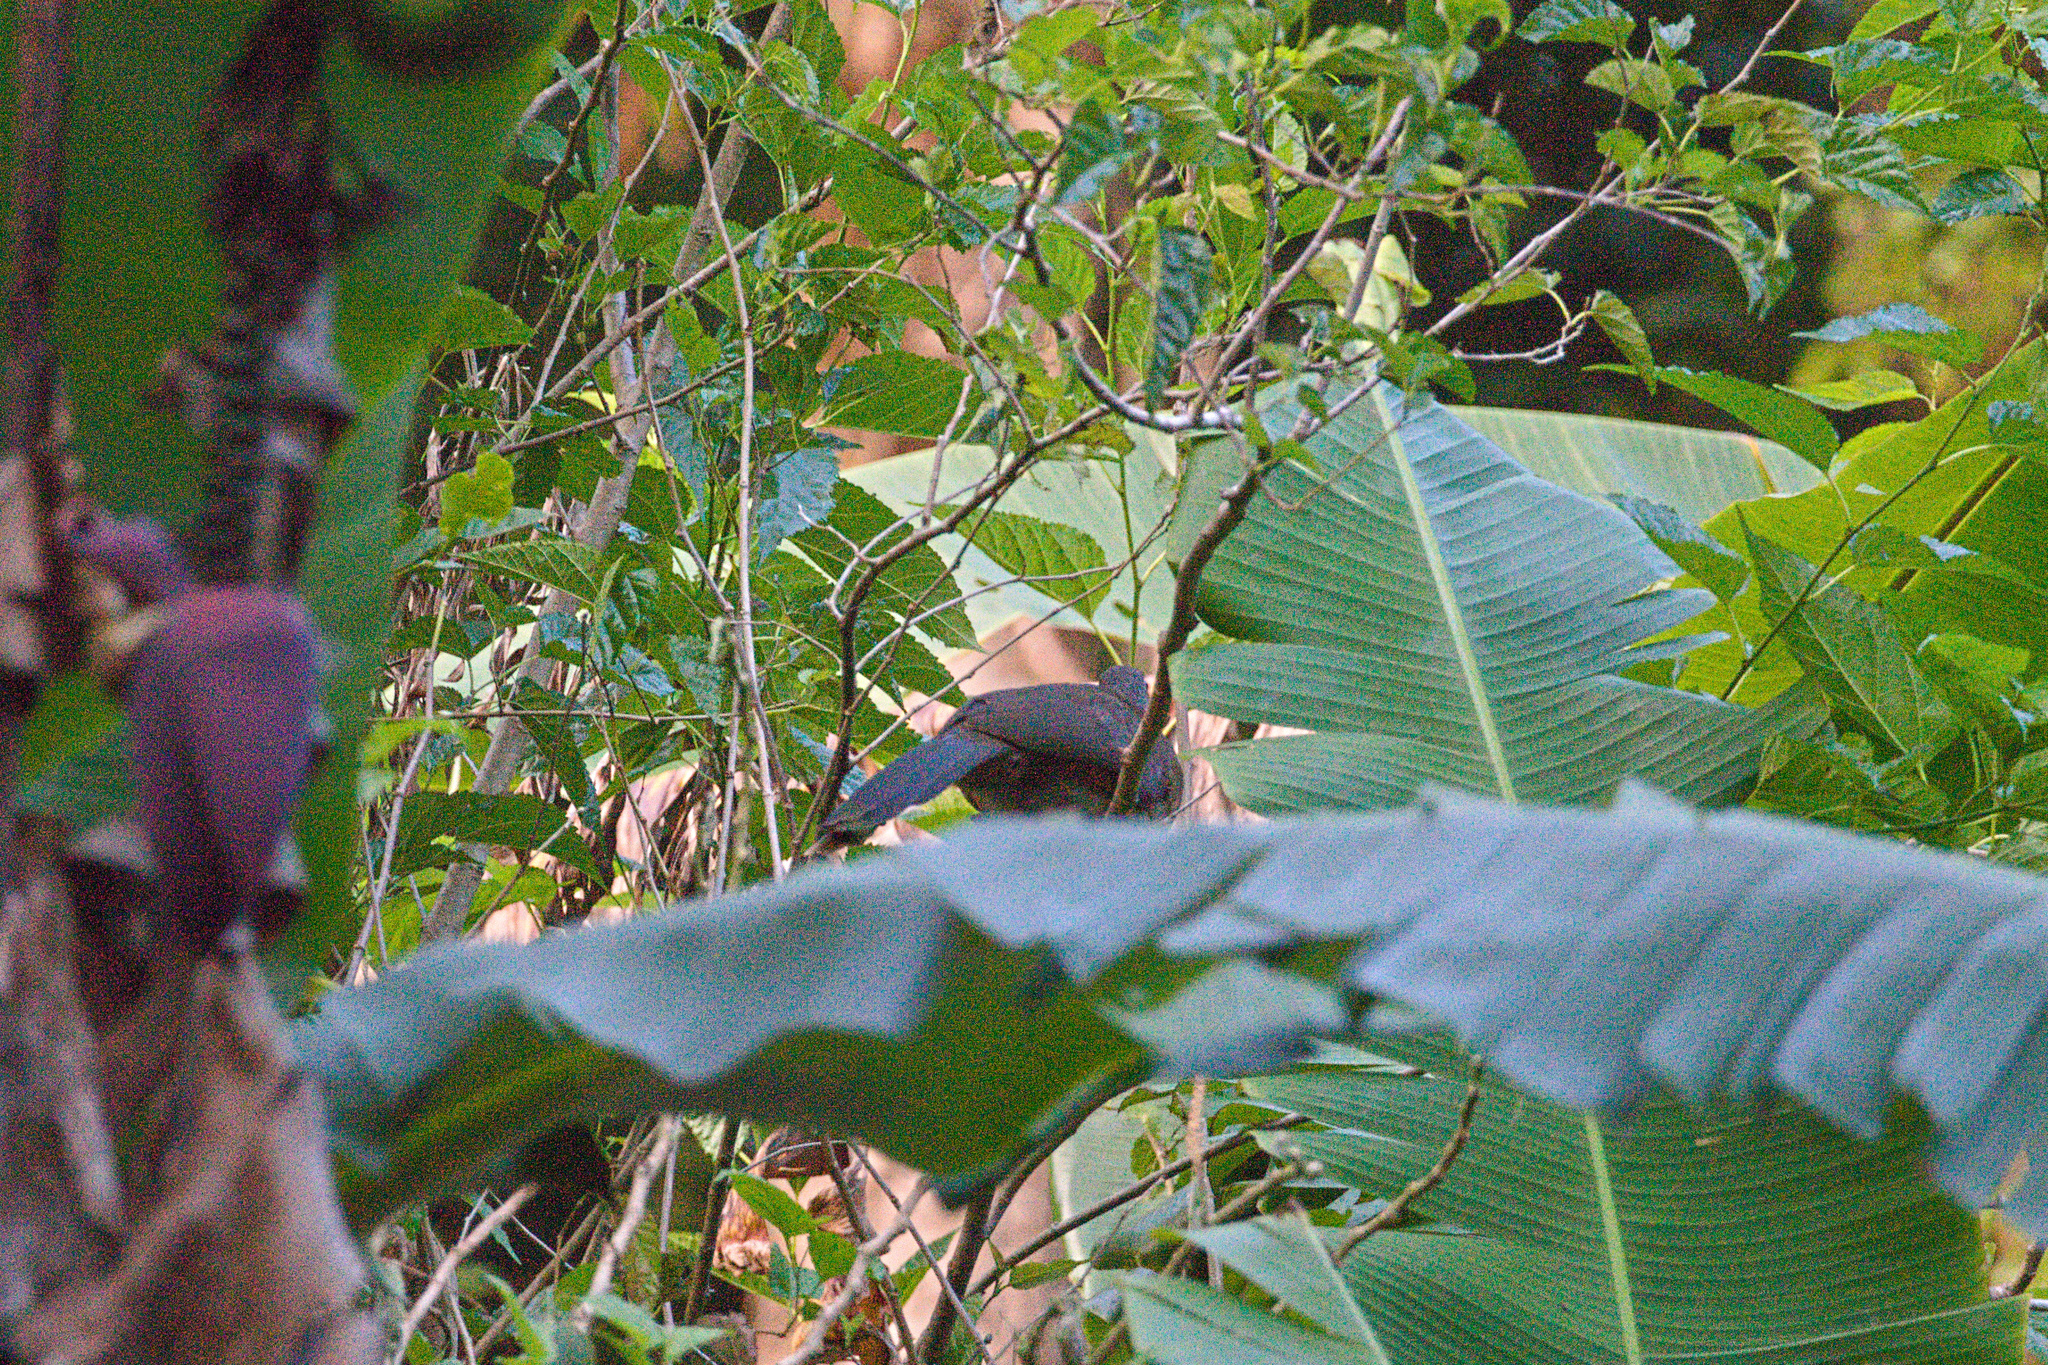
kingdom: Animalia
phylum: Chordata
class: Aves
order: Galliformes
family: Cracidae
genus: Ortalis
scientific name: Ortalis cinereiceps
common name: Grey-headed chachalaca
